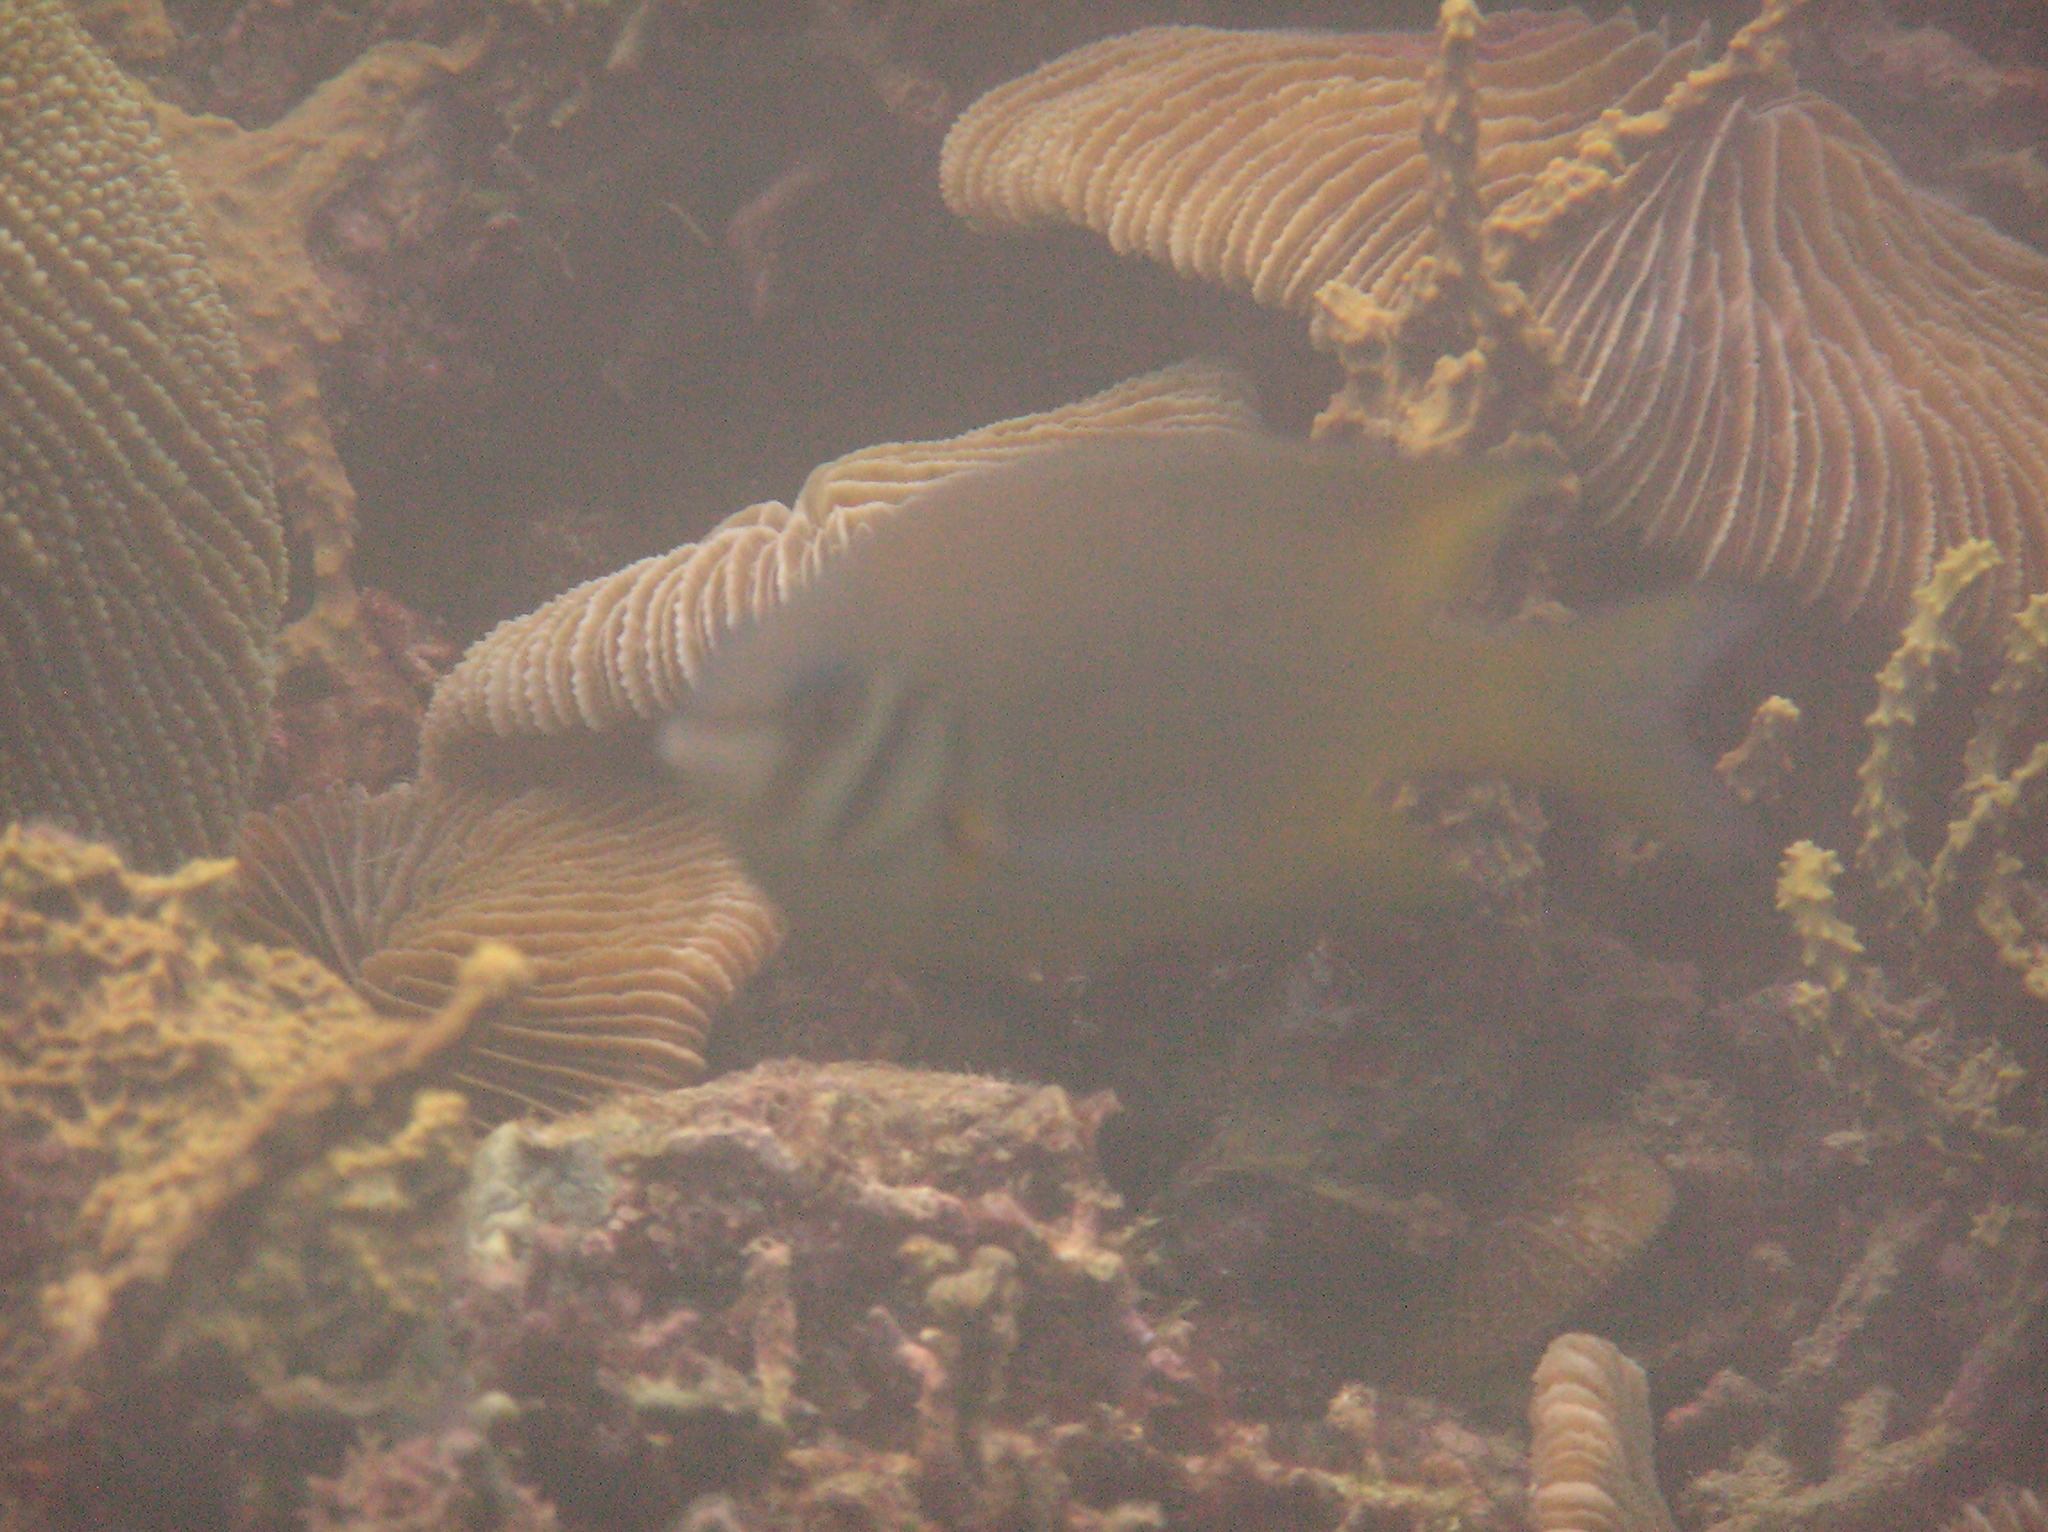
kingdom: Animalia
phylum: Chordata
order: Perciformes
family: Pomacentridae
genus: Neoglyphidodon
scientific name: Neoglyphidodon nigroris
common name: Behn's damsel
